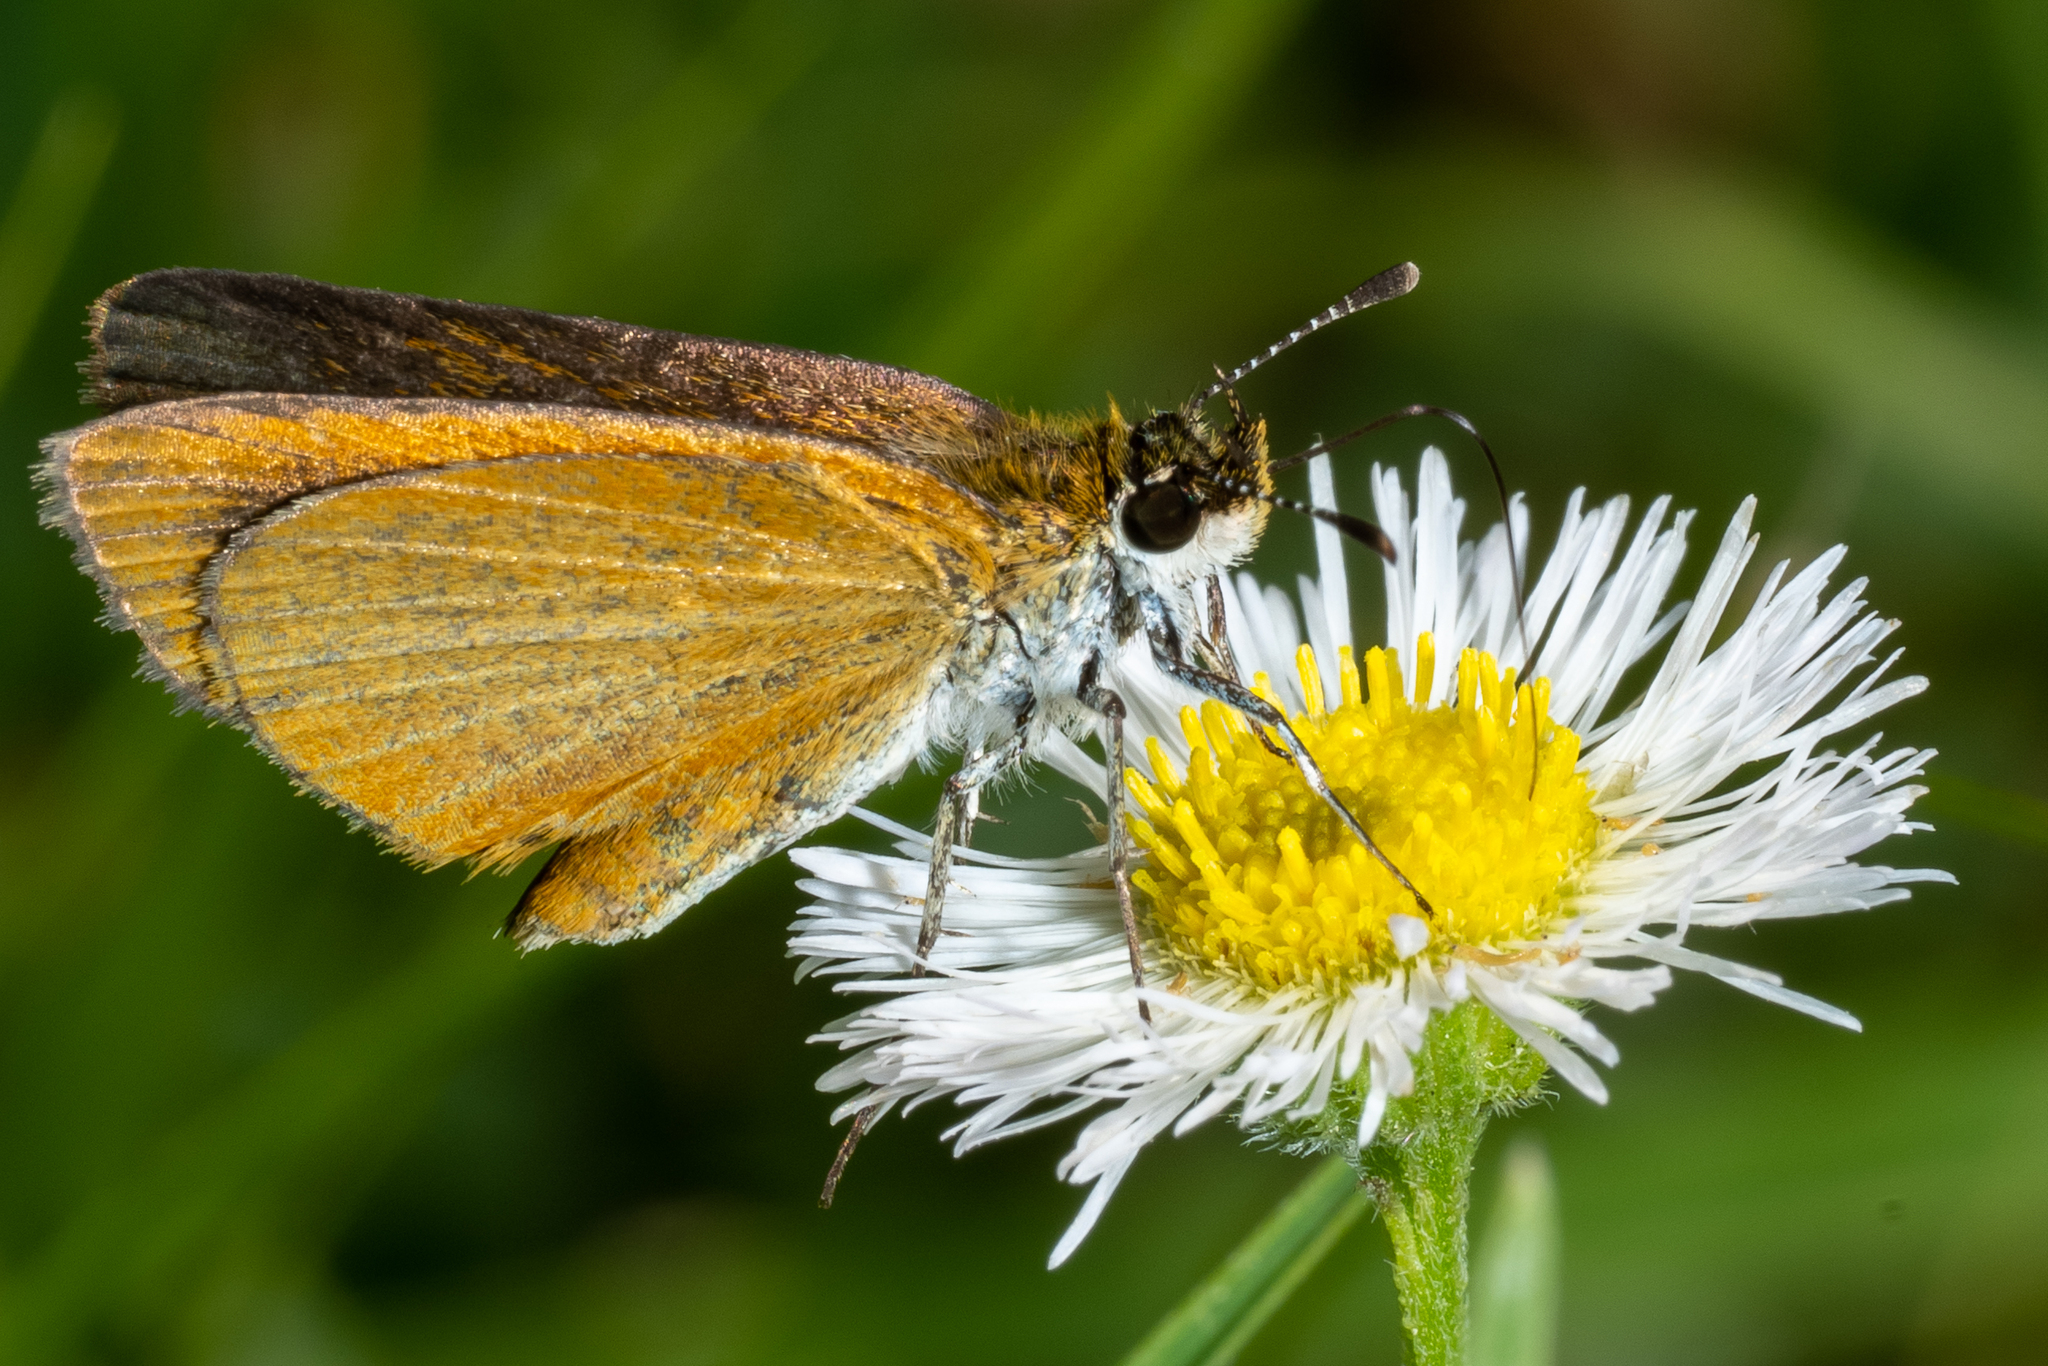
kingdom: Animalia
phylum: Arthropoda
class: Insecta
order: Lepidoptera
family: Hesperiidae
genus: Ancyloxypha
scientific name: Ancyloxypha numitor
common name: Least skipper
